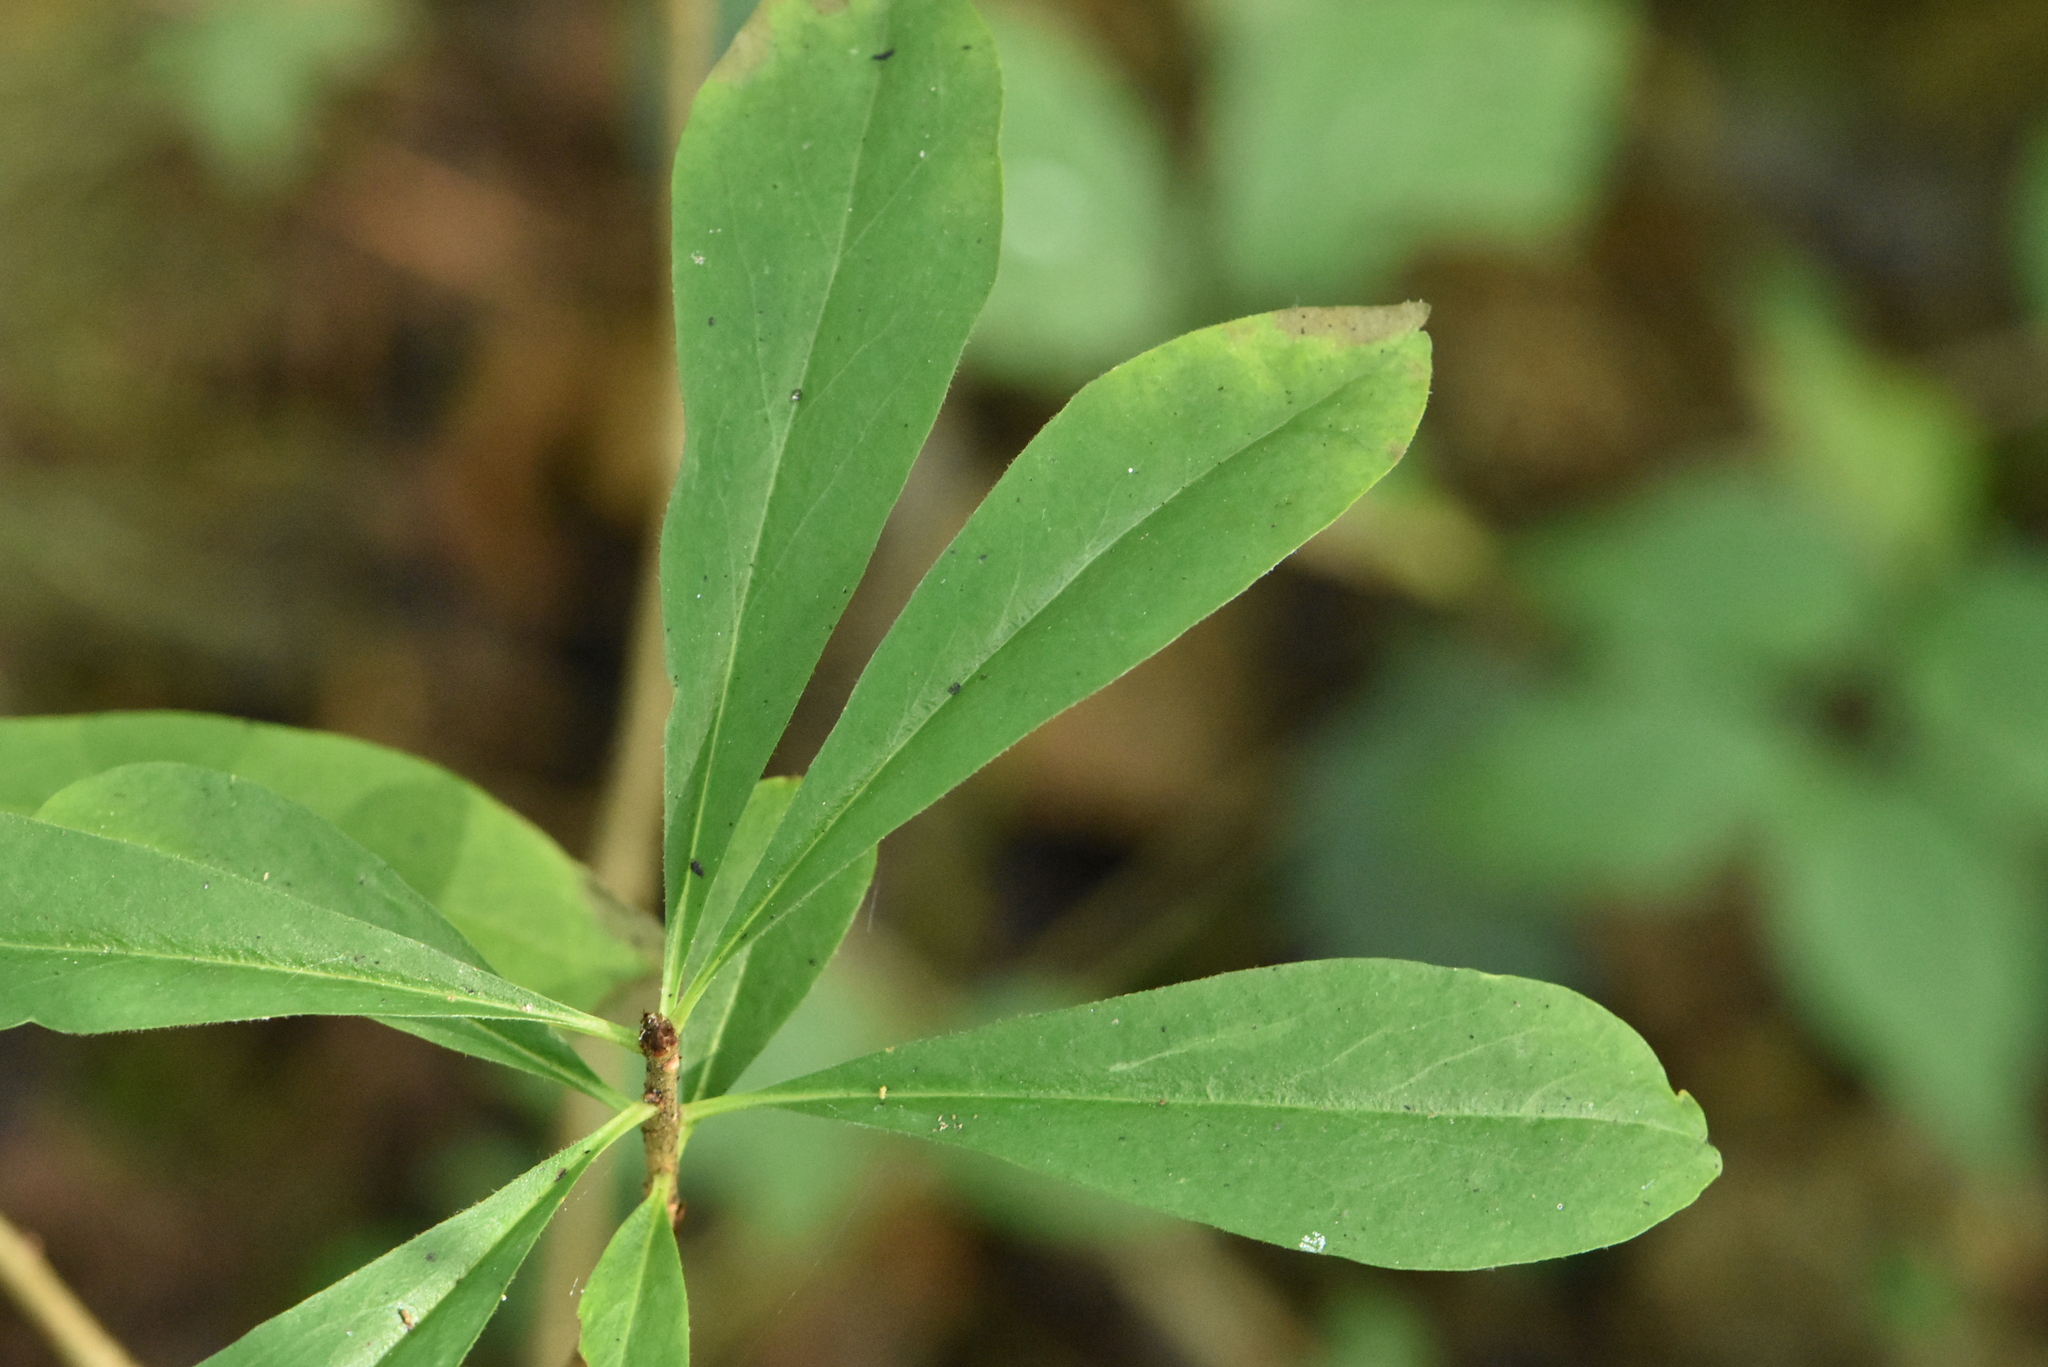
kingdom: Plantae
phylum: Tracheophyta
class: Magnoliopsida
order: Malvales
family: Thymelaeaceae
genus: Daphne
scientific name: Daphne mezereum
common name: Mezereon
